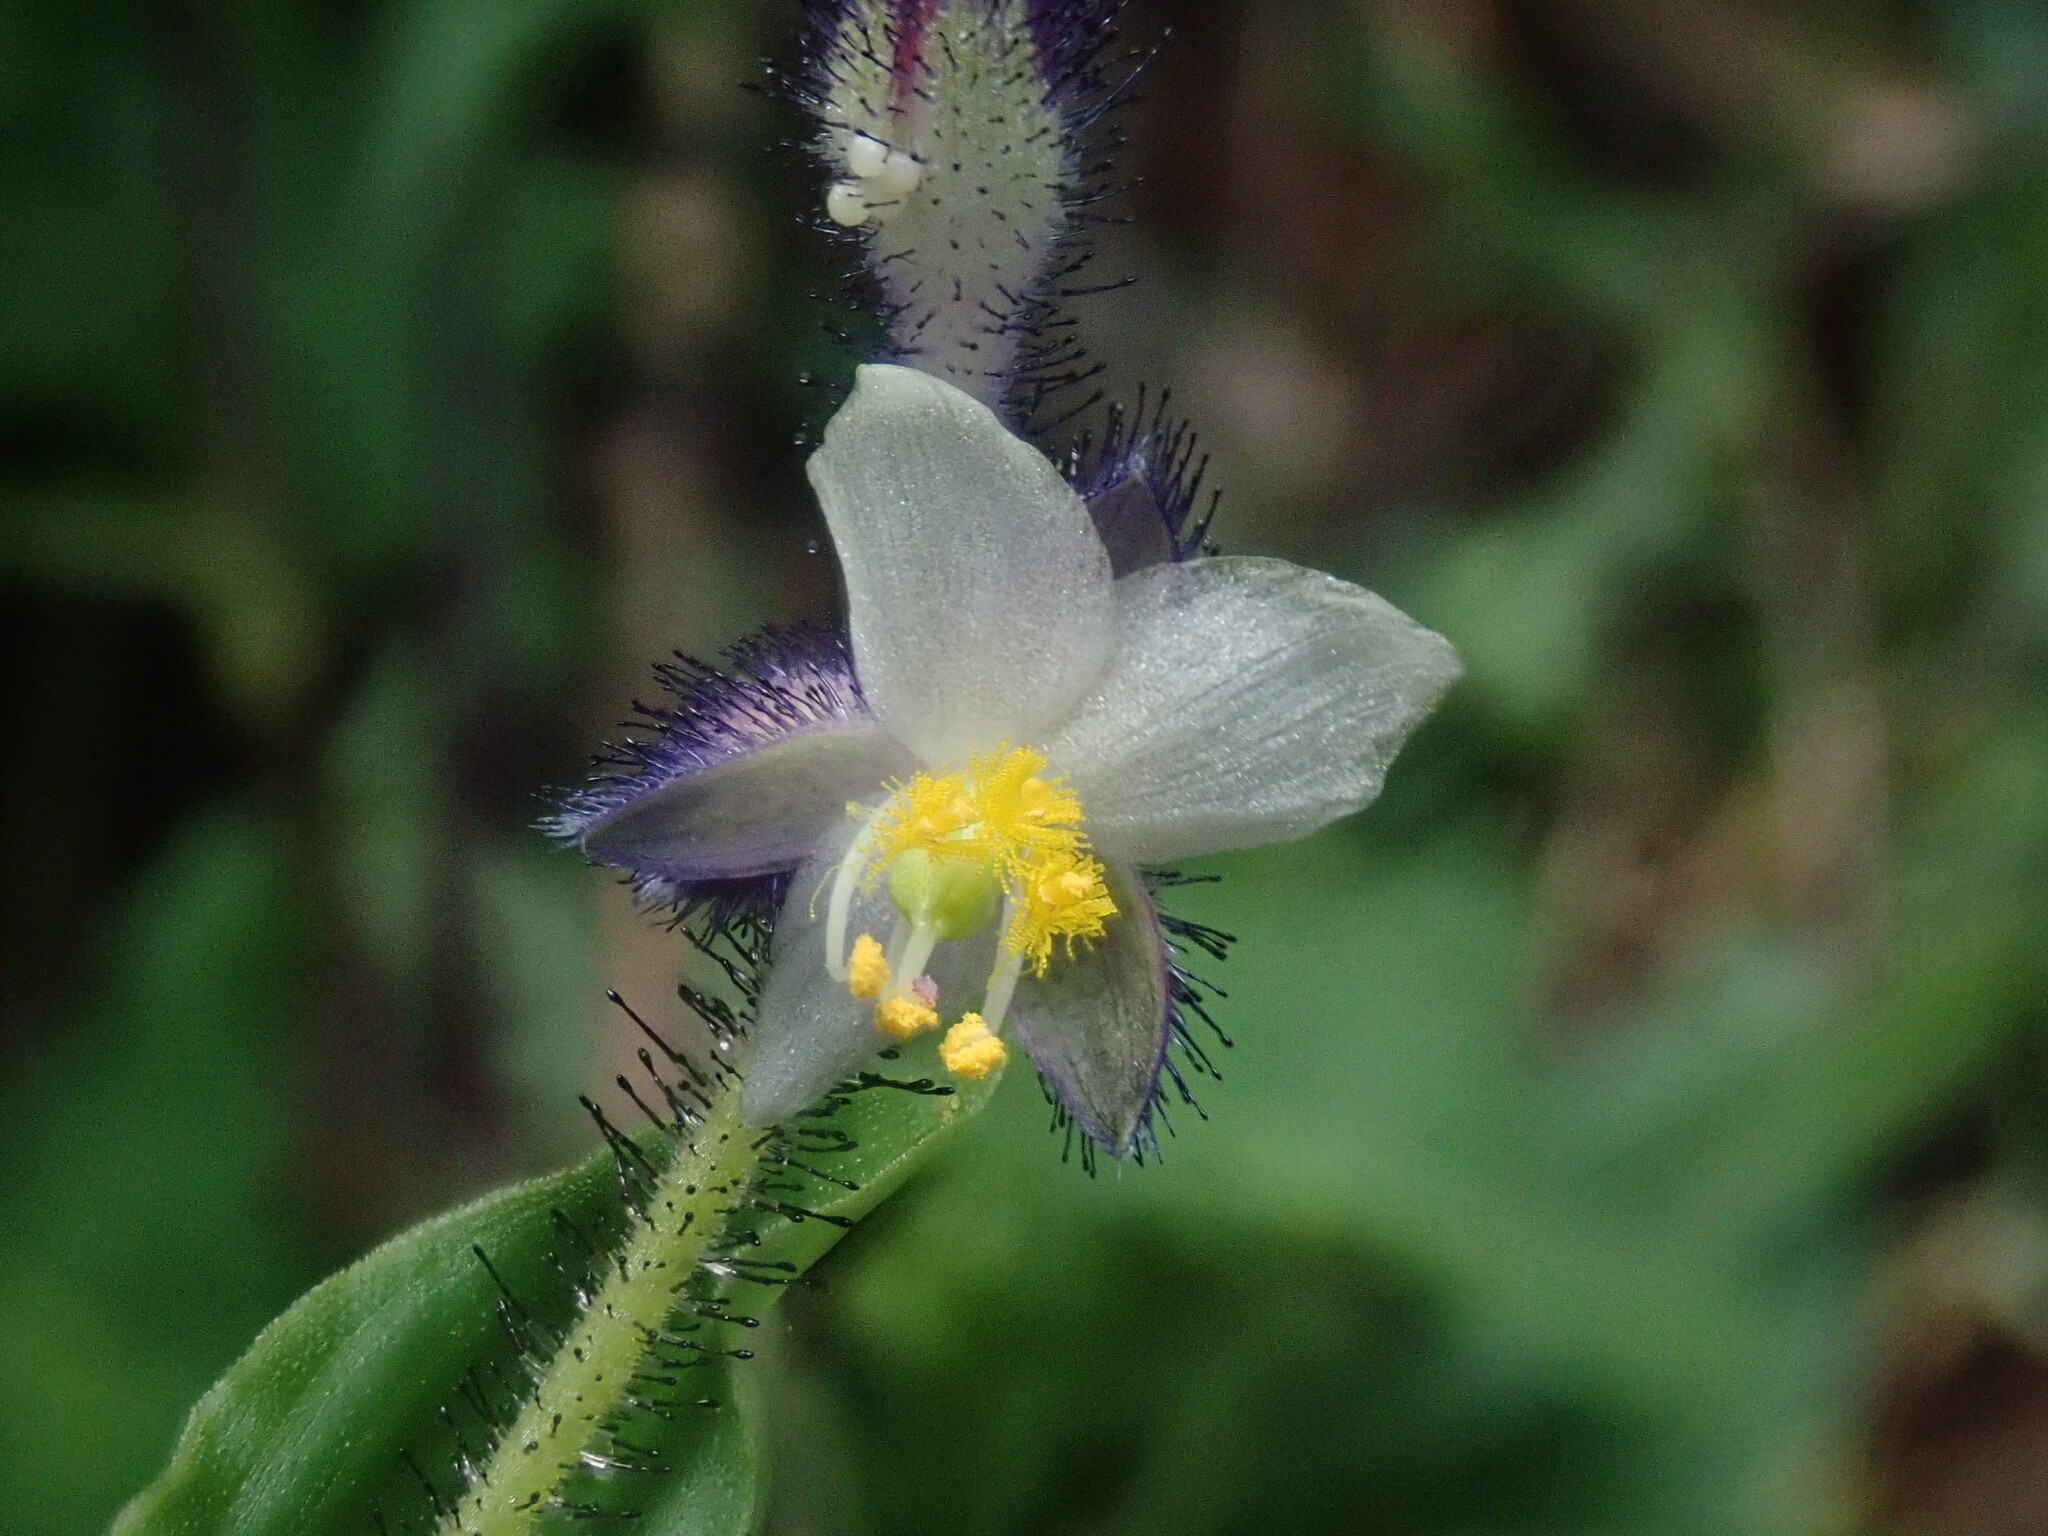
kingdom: Plantae
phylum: Tracheophyta
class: Liliopsida
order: Commelinales
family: Commelinaceae
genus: Tinantia
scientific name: Tinantia violacea
